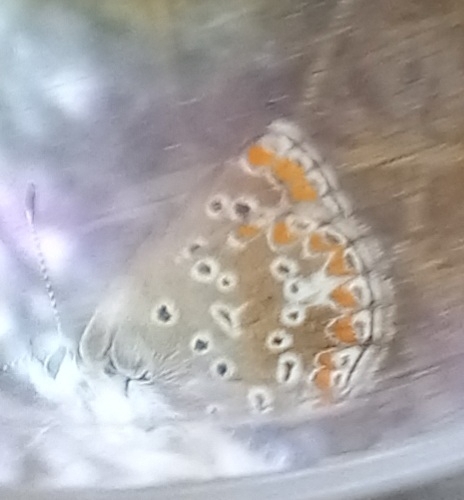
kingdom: Animalia
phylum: Arthropoda
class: Insecta
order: Lepidoptera
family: Lycaenidae
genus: Aricia
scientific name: Aricia cramera
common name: Eschscholtz´s brown  argus
